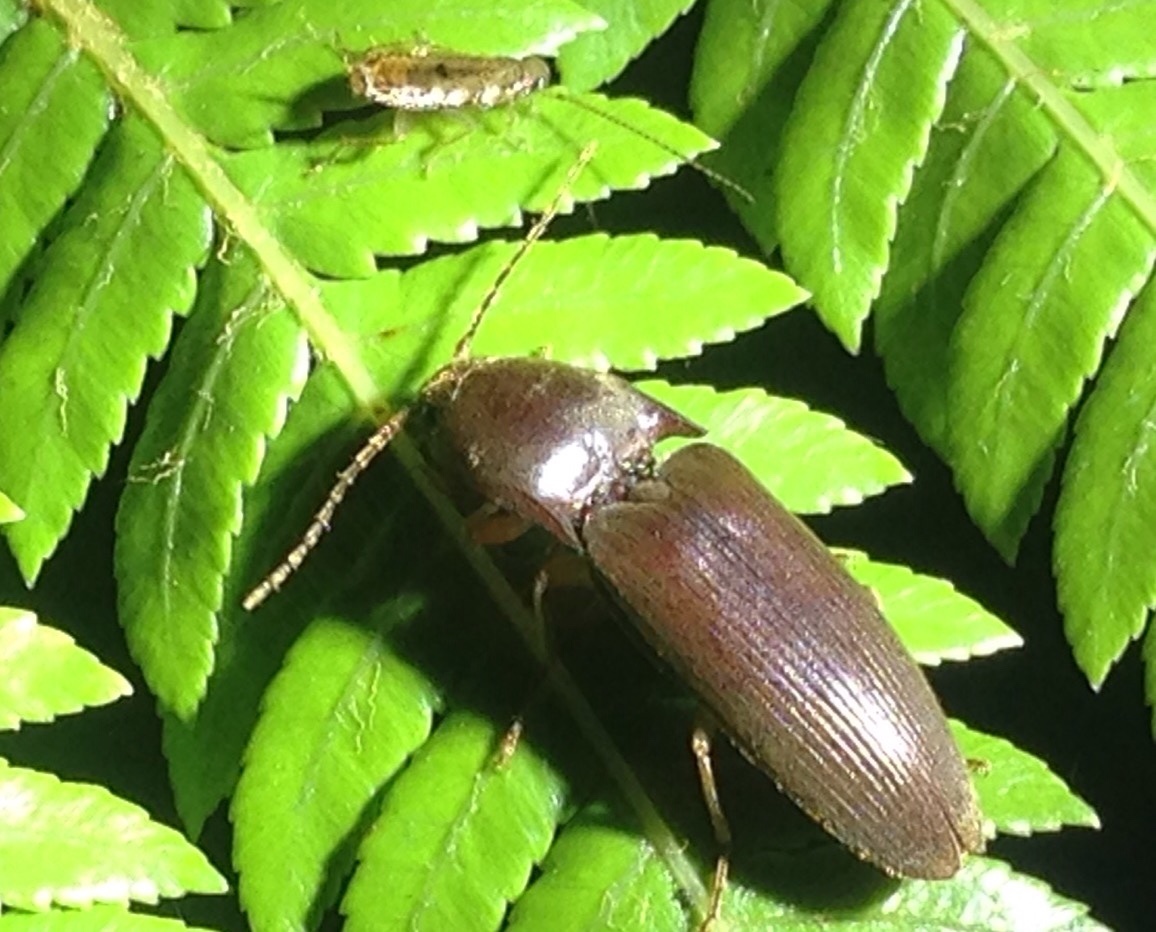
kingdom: Animalia
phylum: Arthropoda
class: Insecta
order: Coleoptera
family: Elateridae
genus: Conoderus
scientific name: Conoderus exsul
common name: Click beetle
